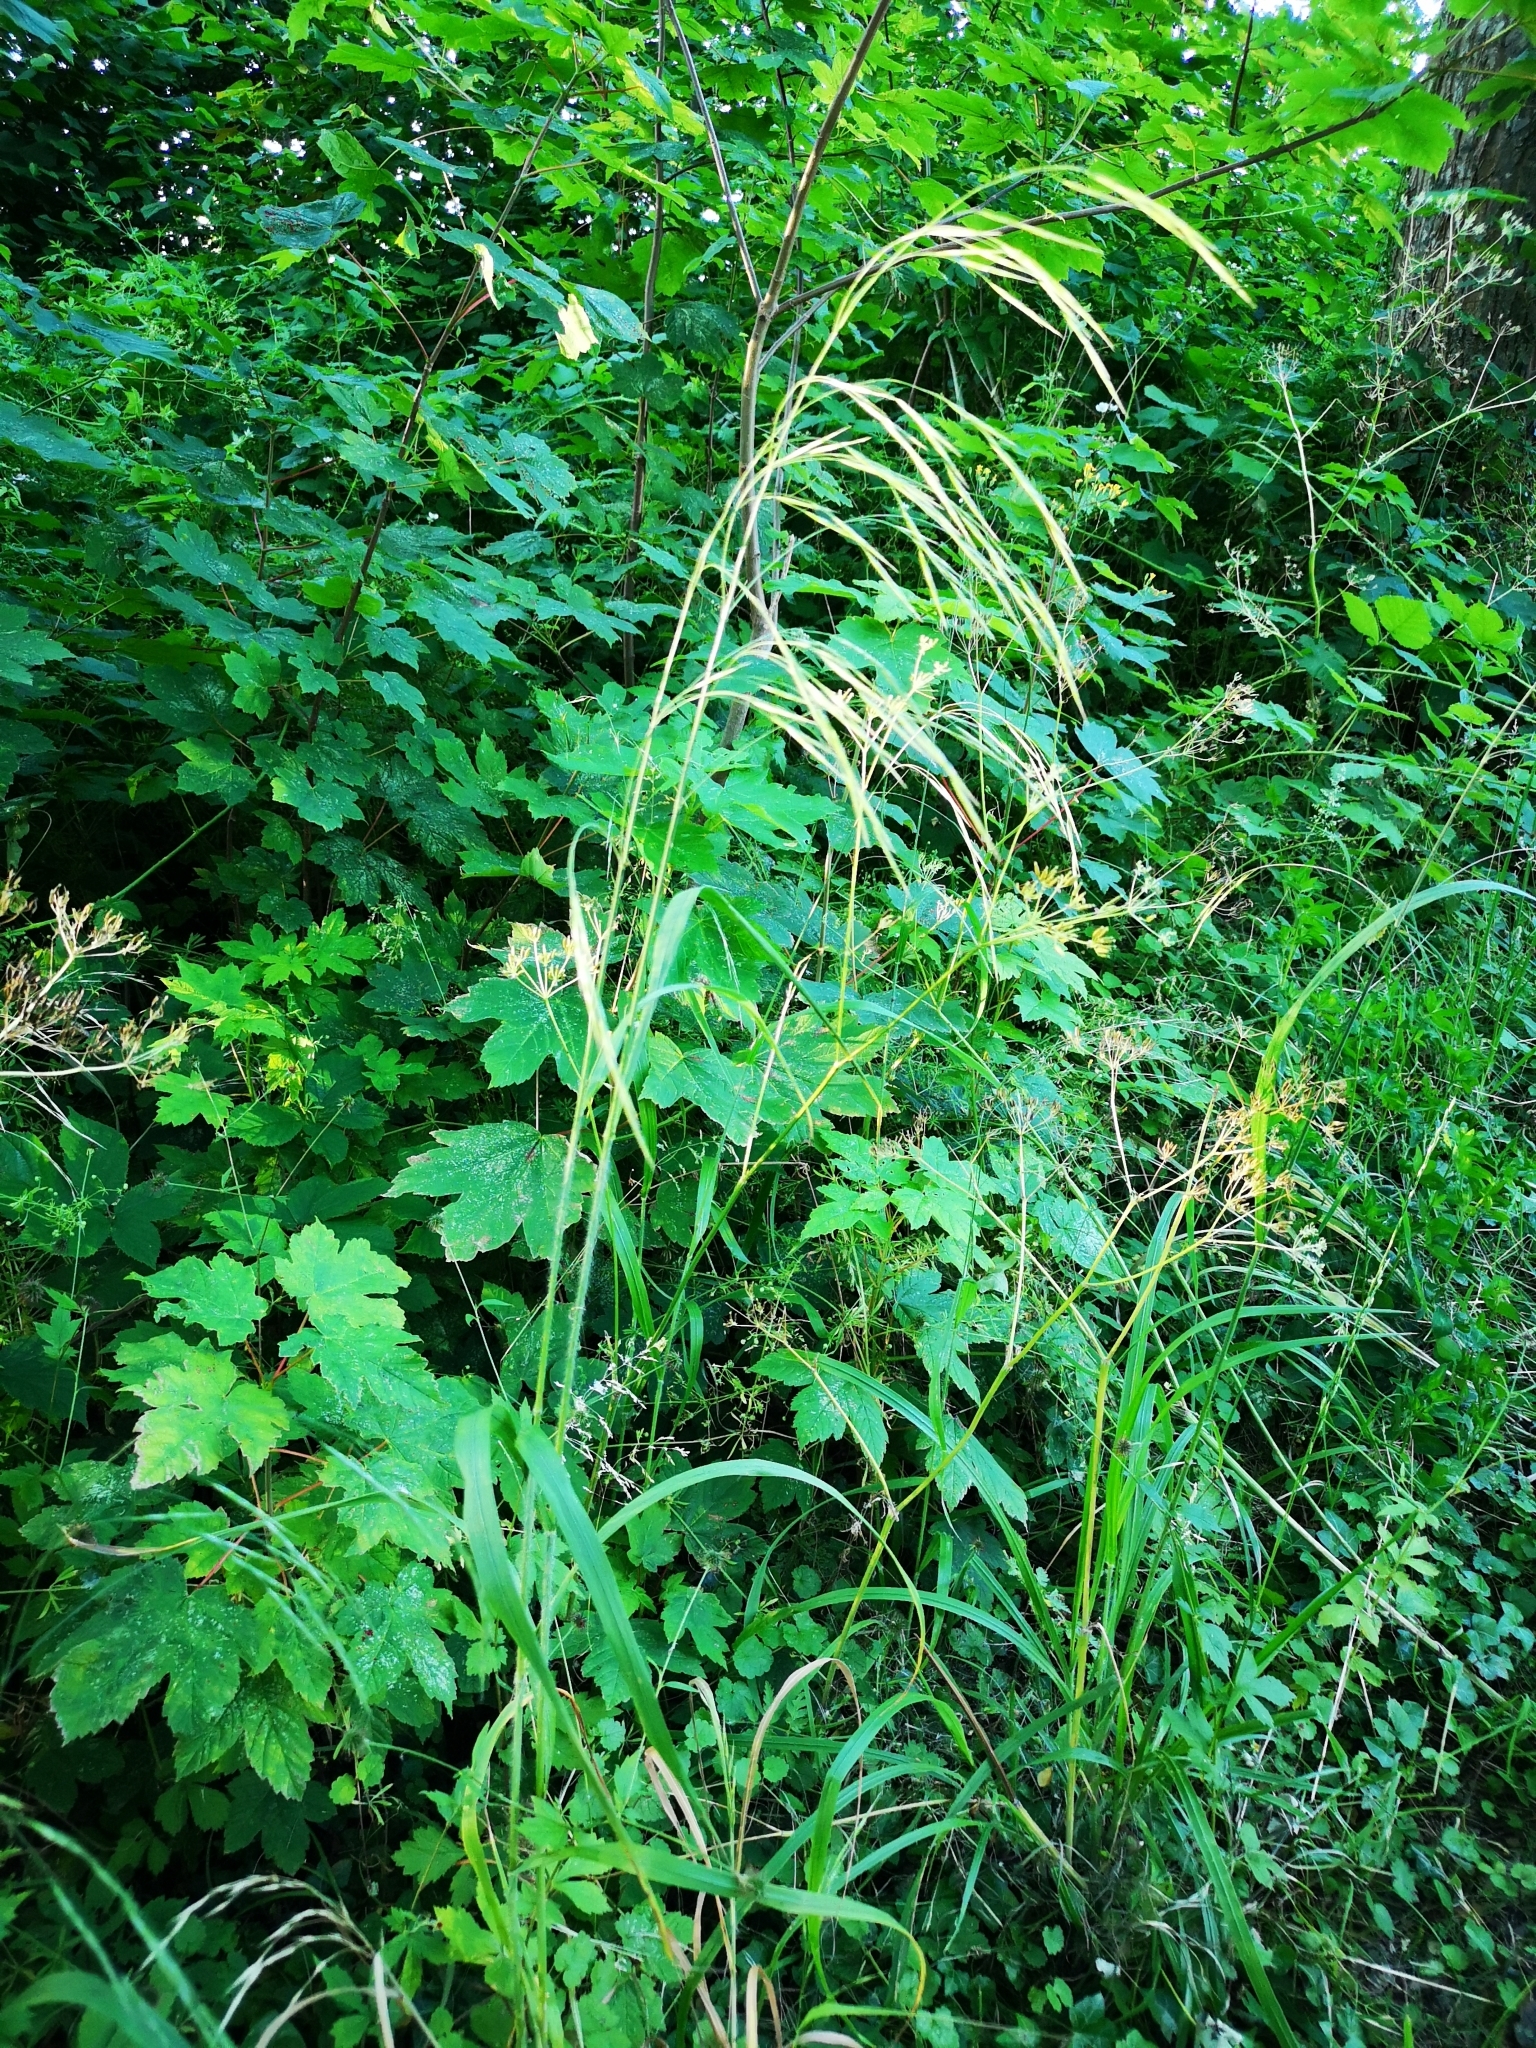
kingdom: Plantae
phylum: Tracheophyta
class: Liliopsida
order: Poales
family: Poaceae
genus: Bromus
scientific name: Bromus ramosus
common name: Hairy brome
